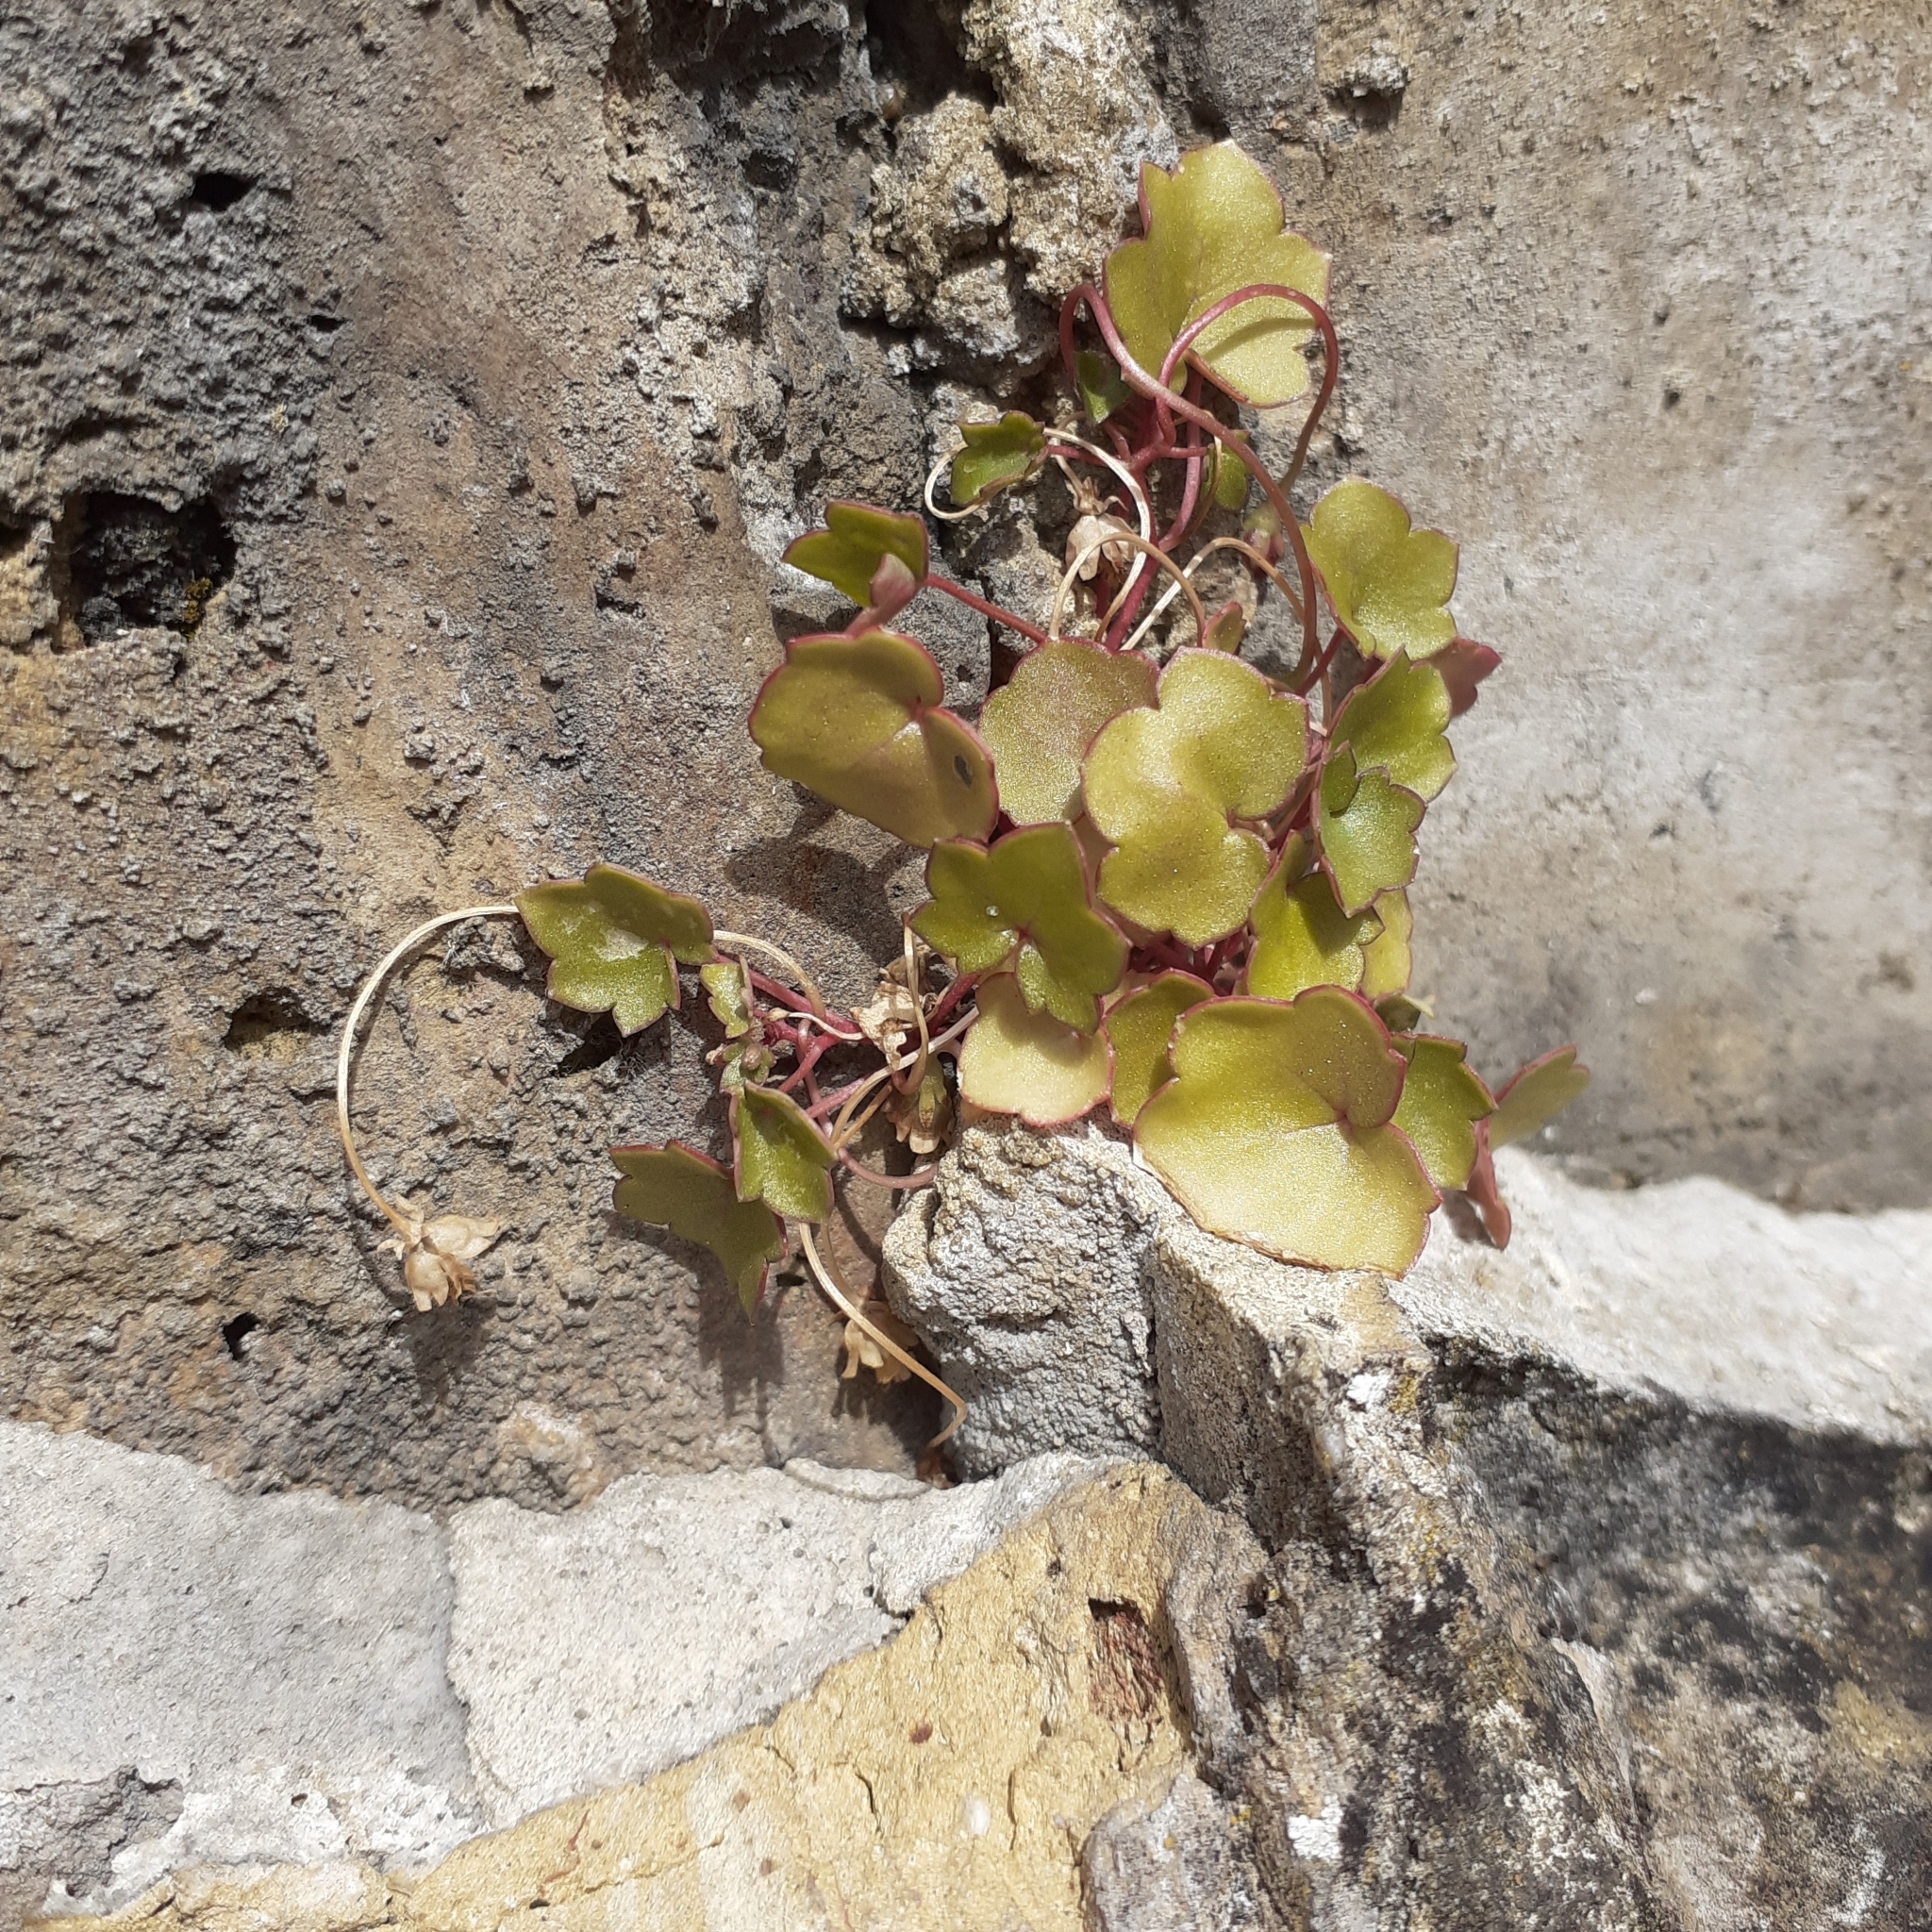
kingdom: Plantae
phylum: Tracheophyta
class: Magnoliopsida
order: Lamiales
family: Plantaginaceae
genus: Cymbalaria
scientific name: Cymbalaria muralis
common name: Ivy-leaved toadflax
